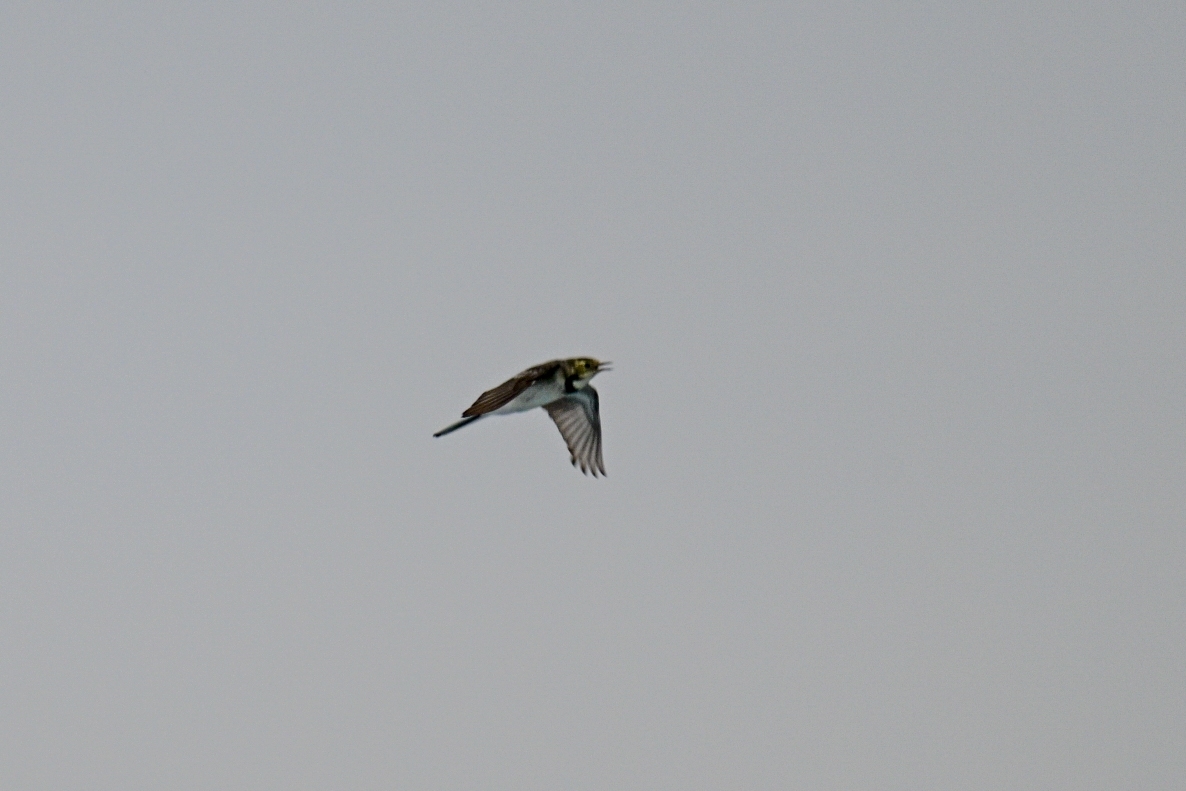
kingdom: Animalia
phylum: Chordata
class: Aves
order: Passeriformes
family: Motacillidae
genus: Motacilla
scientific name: Motacilla alba
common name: White wagtail
